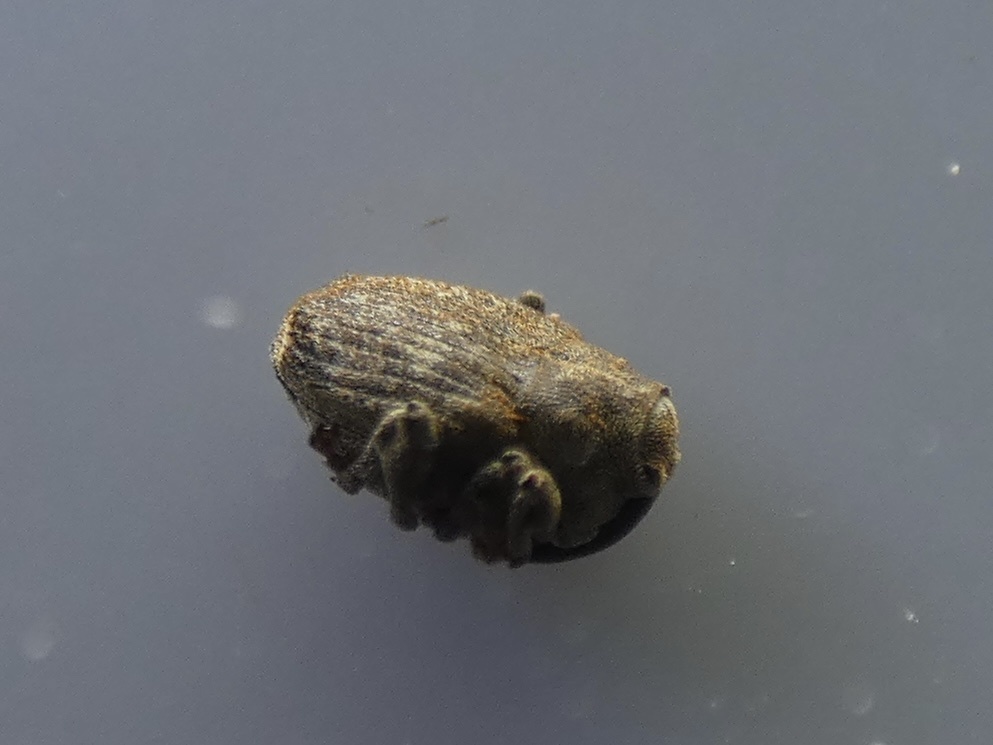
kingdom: Animalia
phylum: Arthropoda
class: Insecta
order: Coleoptera
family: Curculionidae
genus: Parethelcus
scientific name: Parethelcus pollinarius
